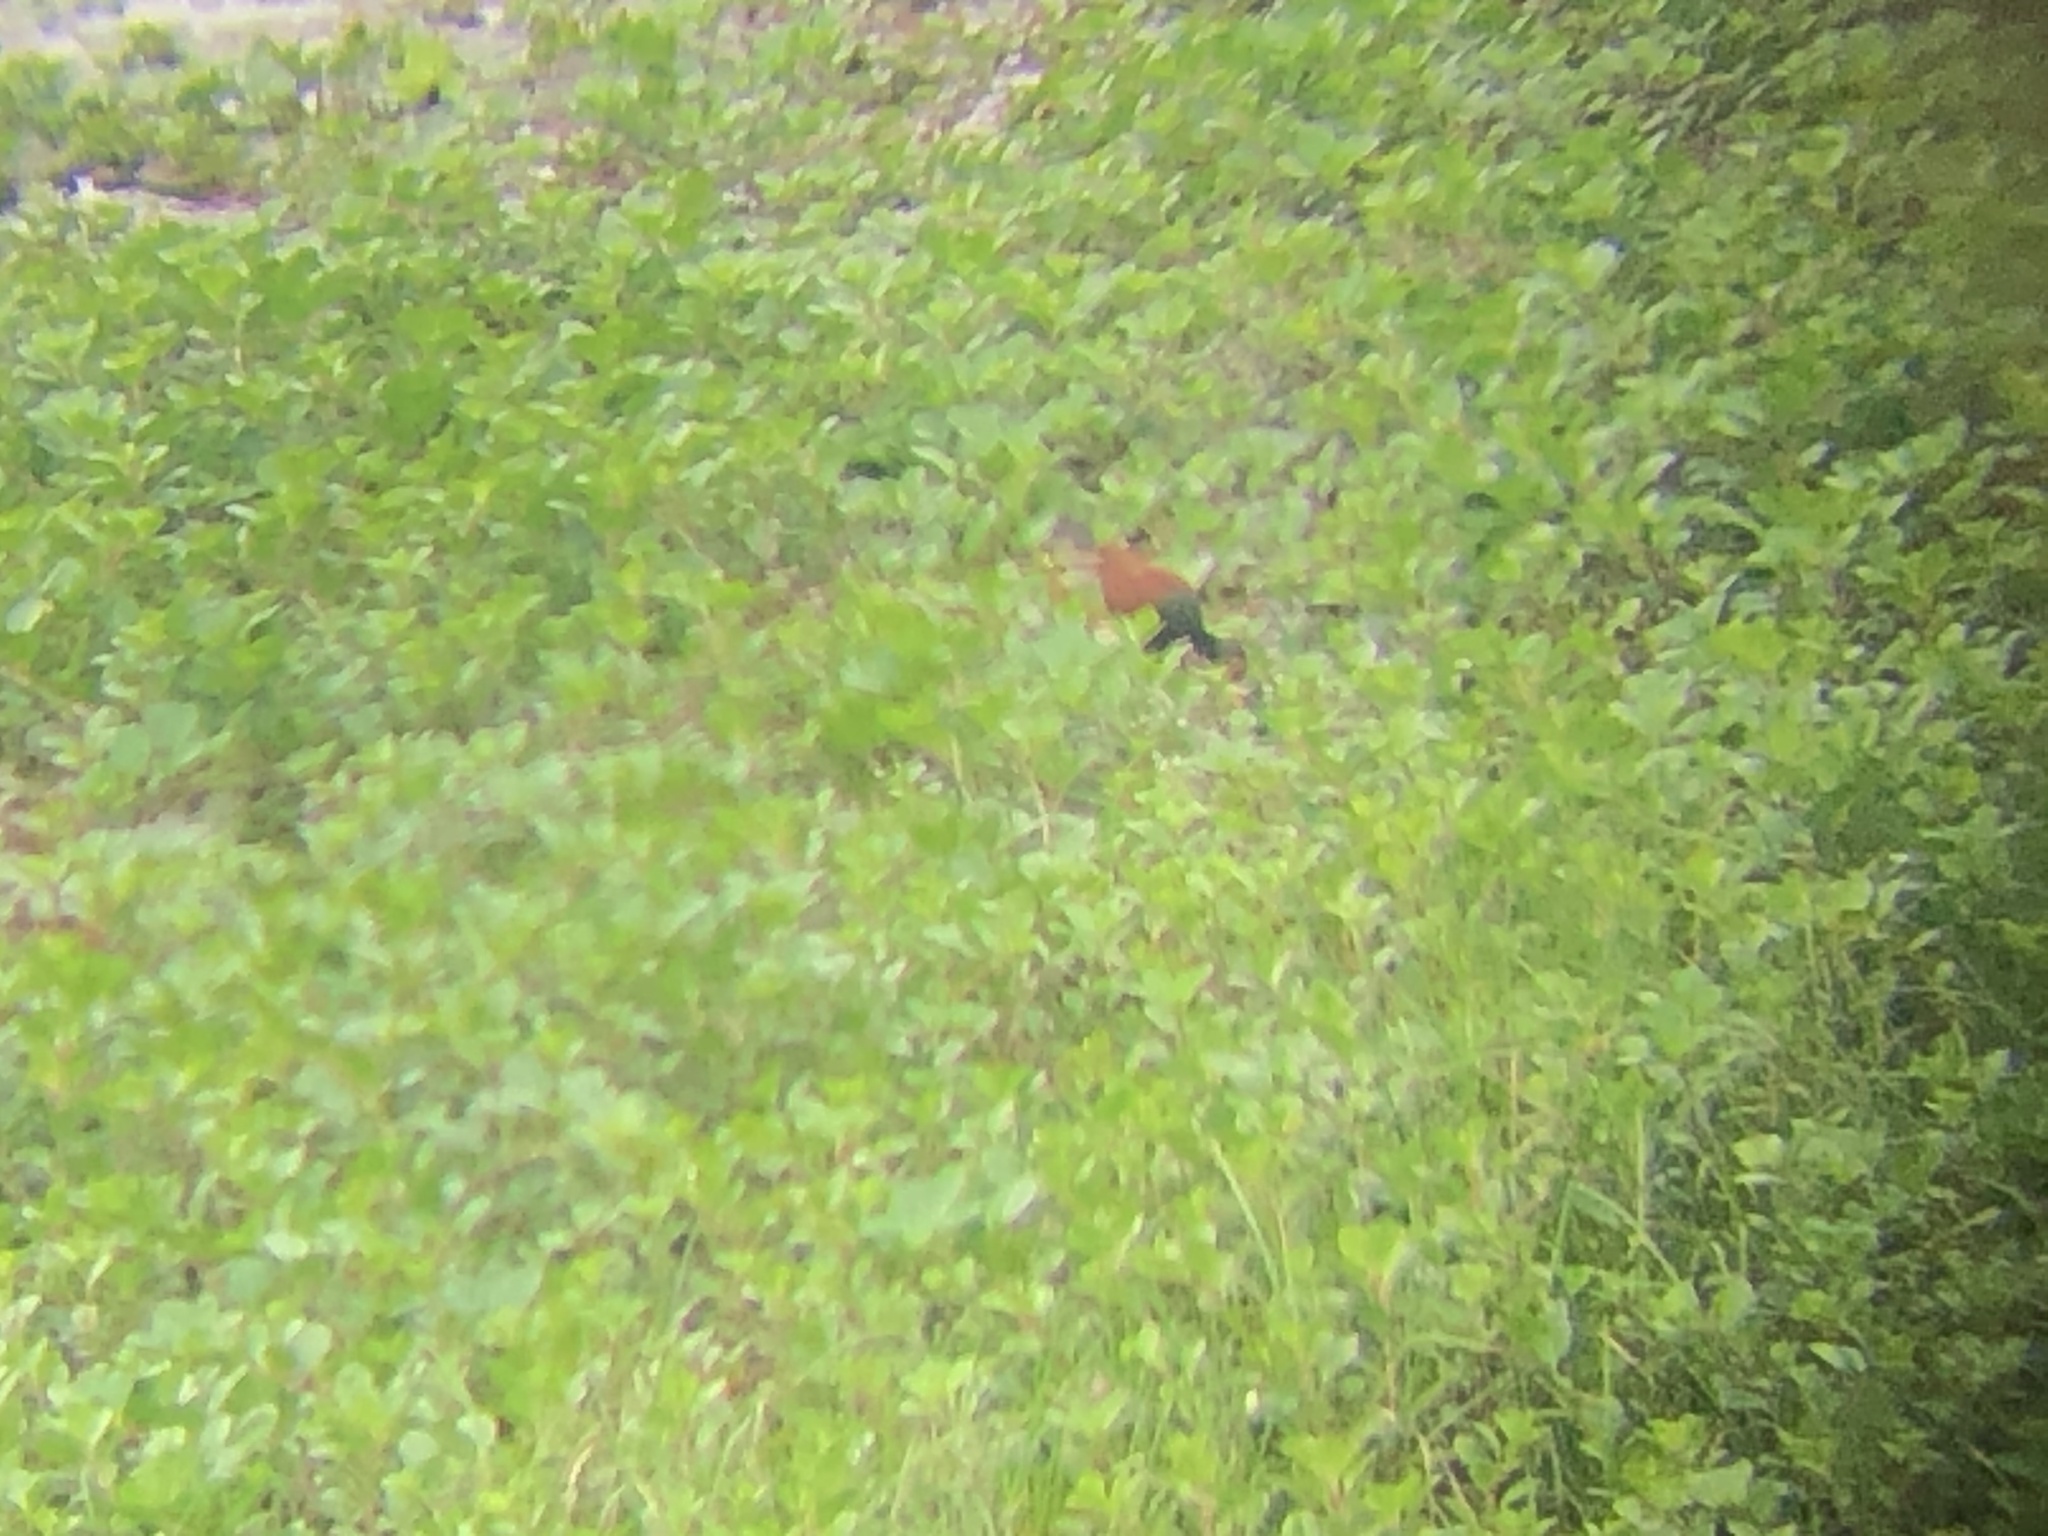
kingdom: Animalia
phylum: Chordata
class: Aves
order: Charadriiformes
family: Jacanidae
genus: Jacana
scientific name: Jacana jacana
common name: Wattled jacana
